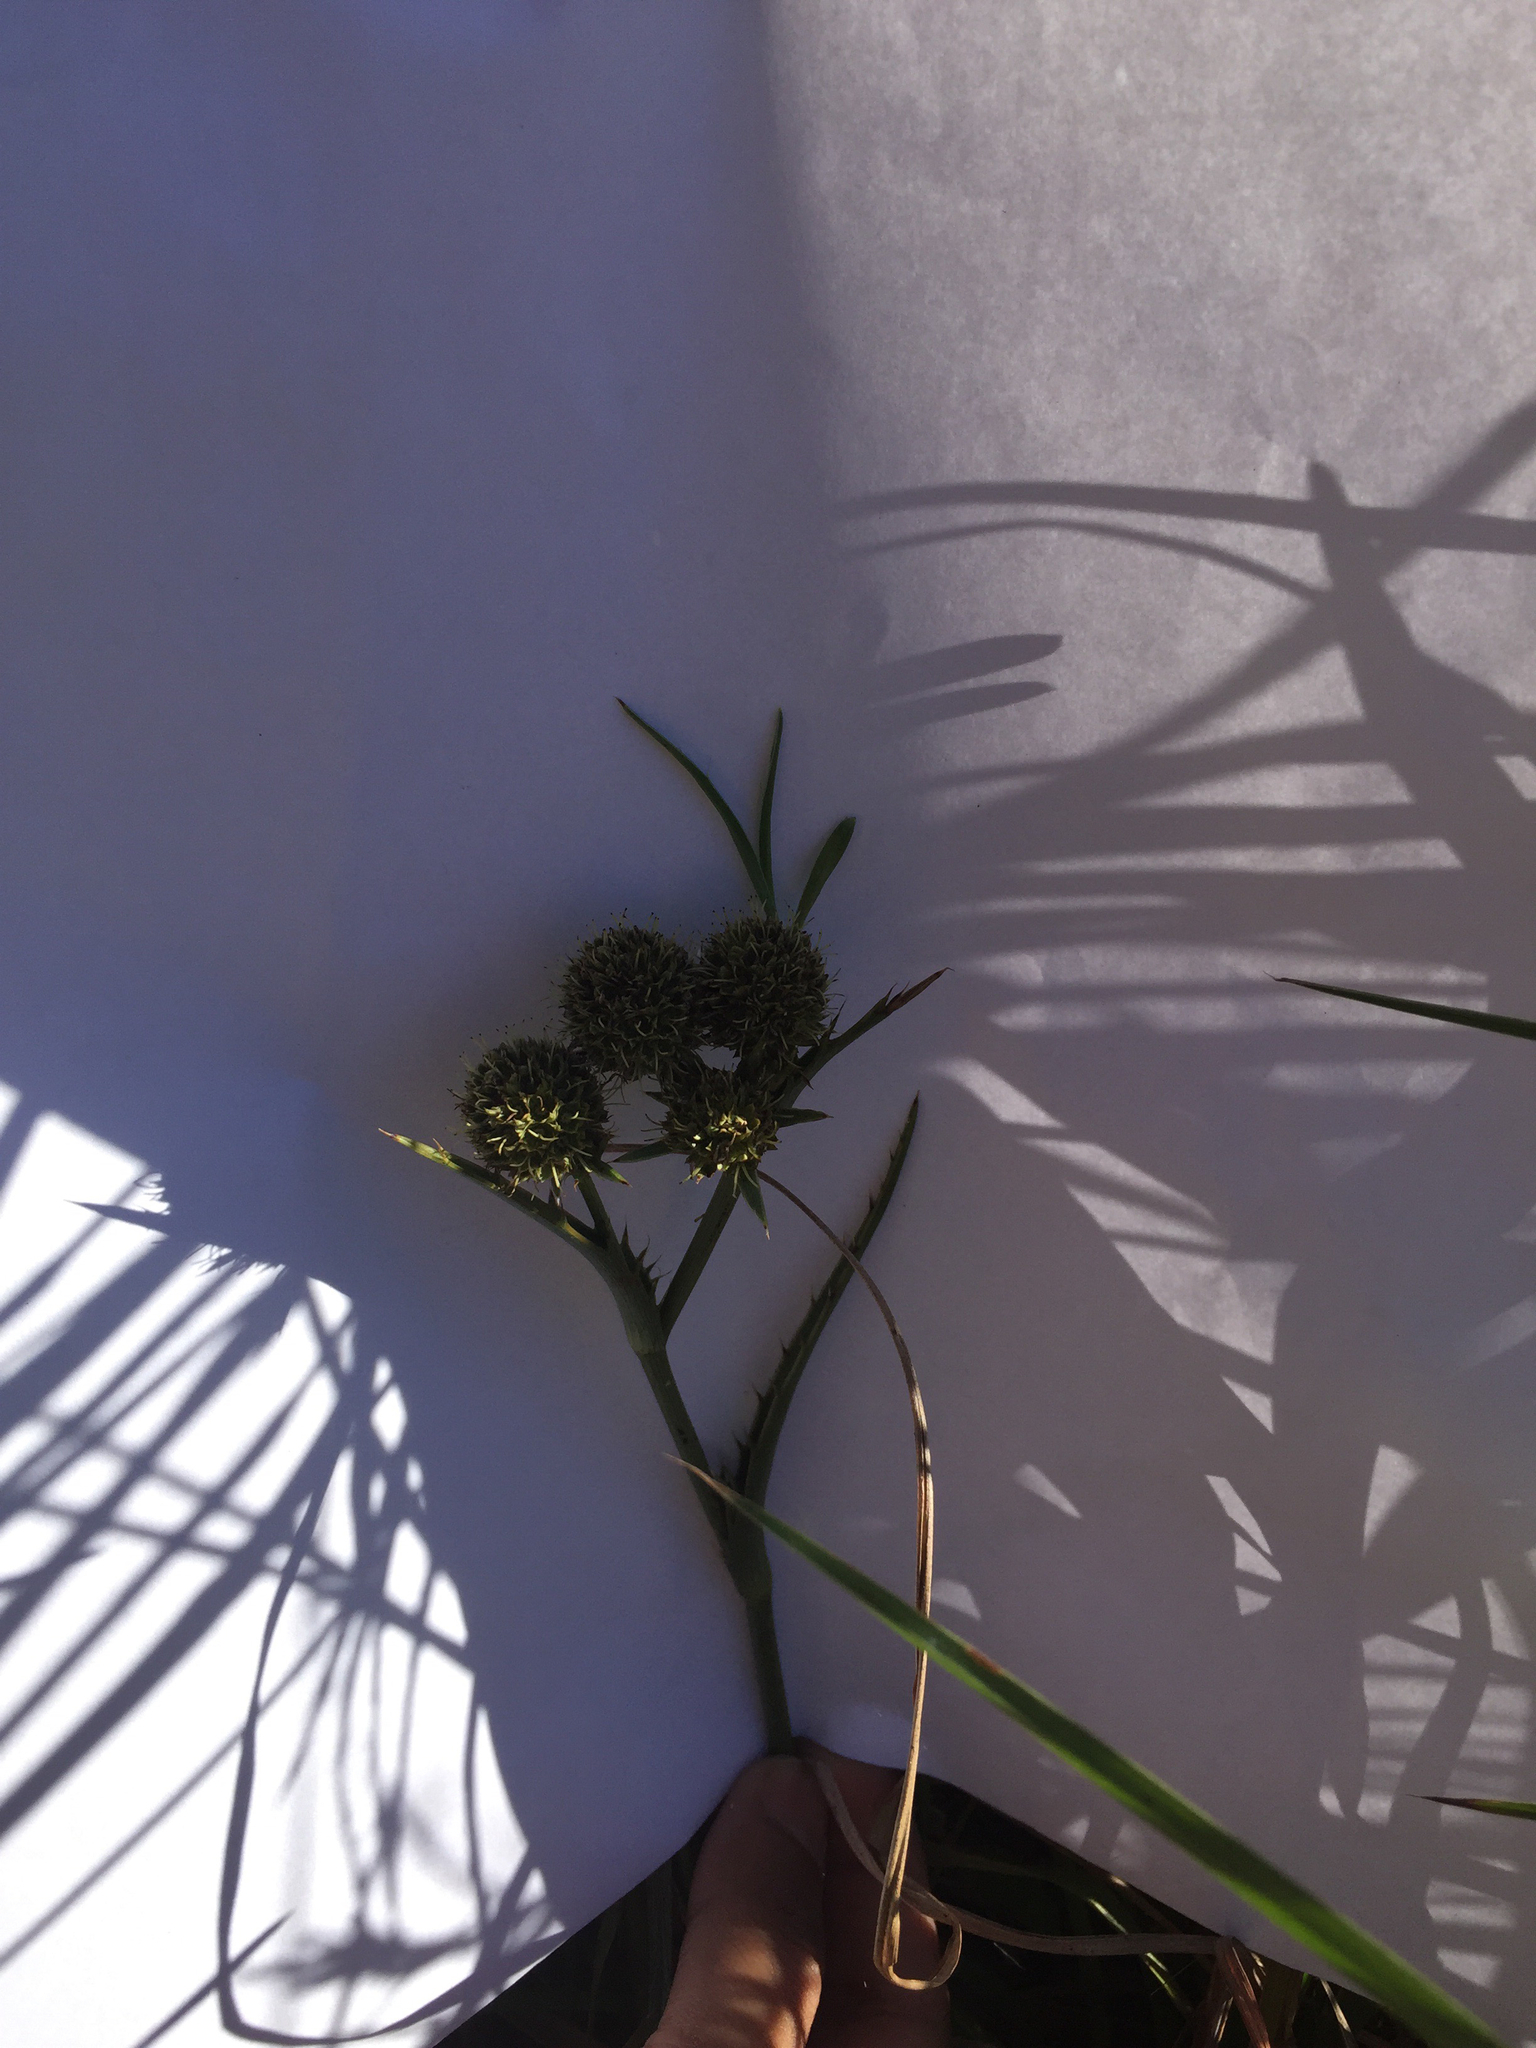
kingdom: Plantae
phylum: Tracheophyta
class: Magnoliopsida
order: Apiales
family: Apiaceae
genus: Eryngium
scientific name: Eryngium yuccifolium
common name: Button eryngo
